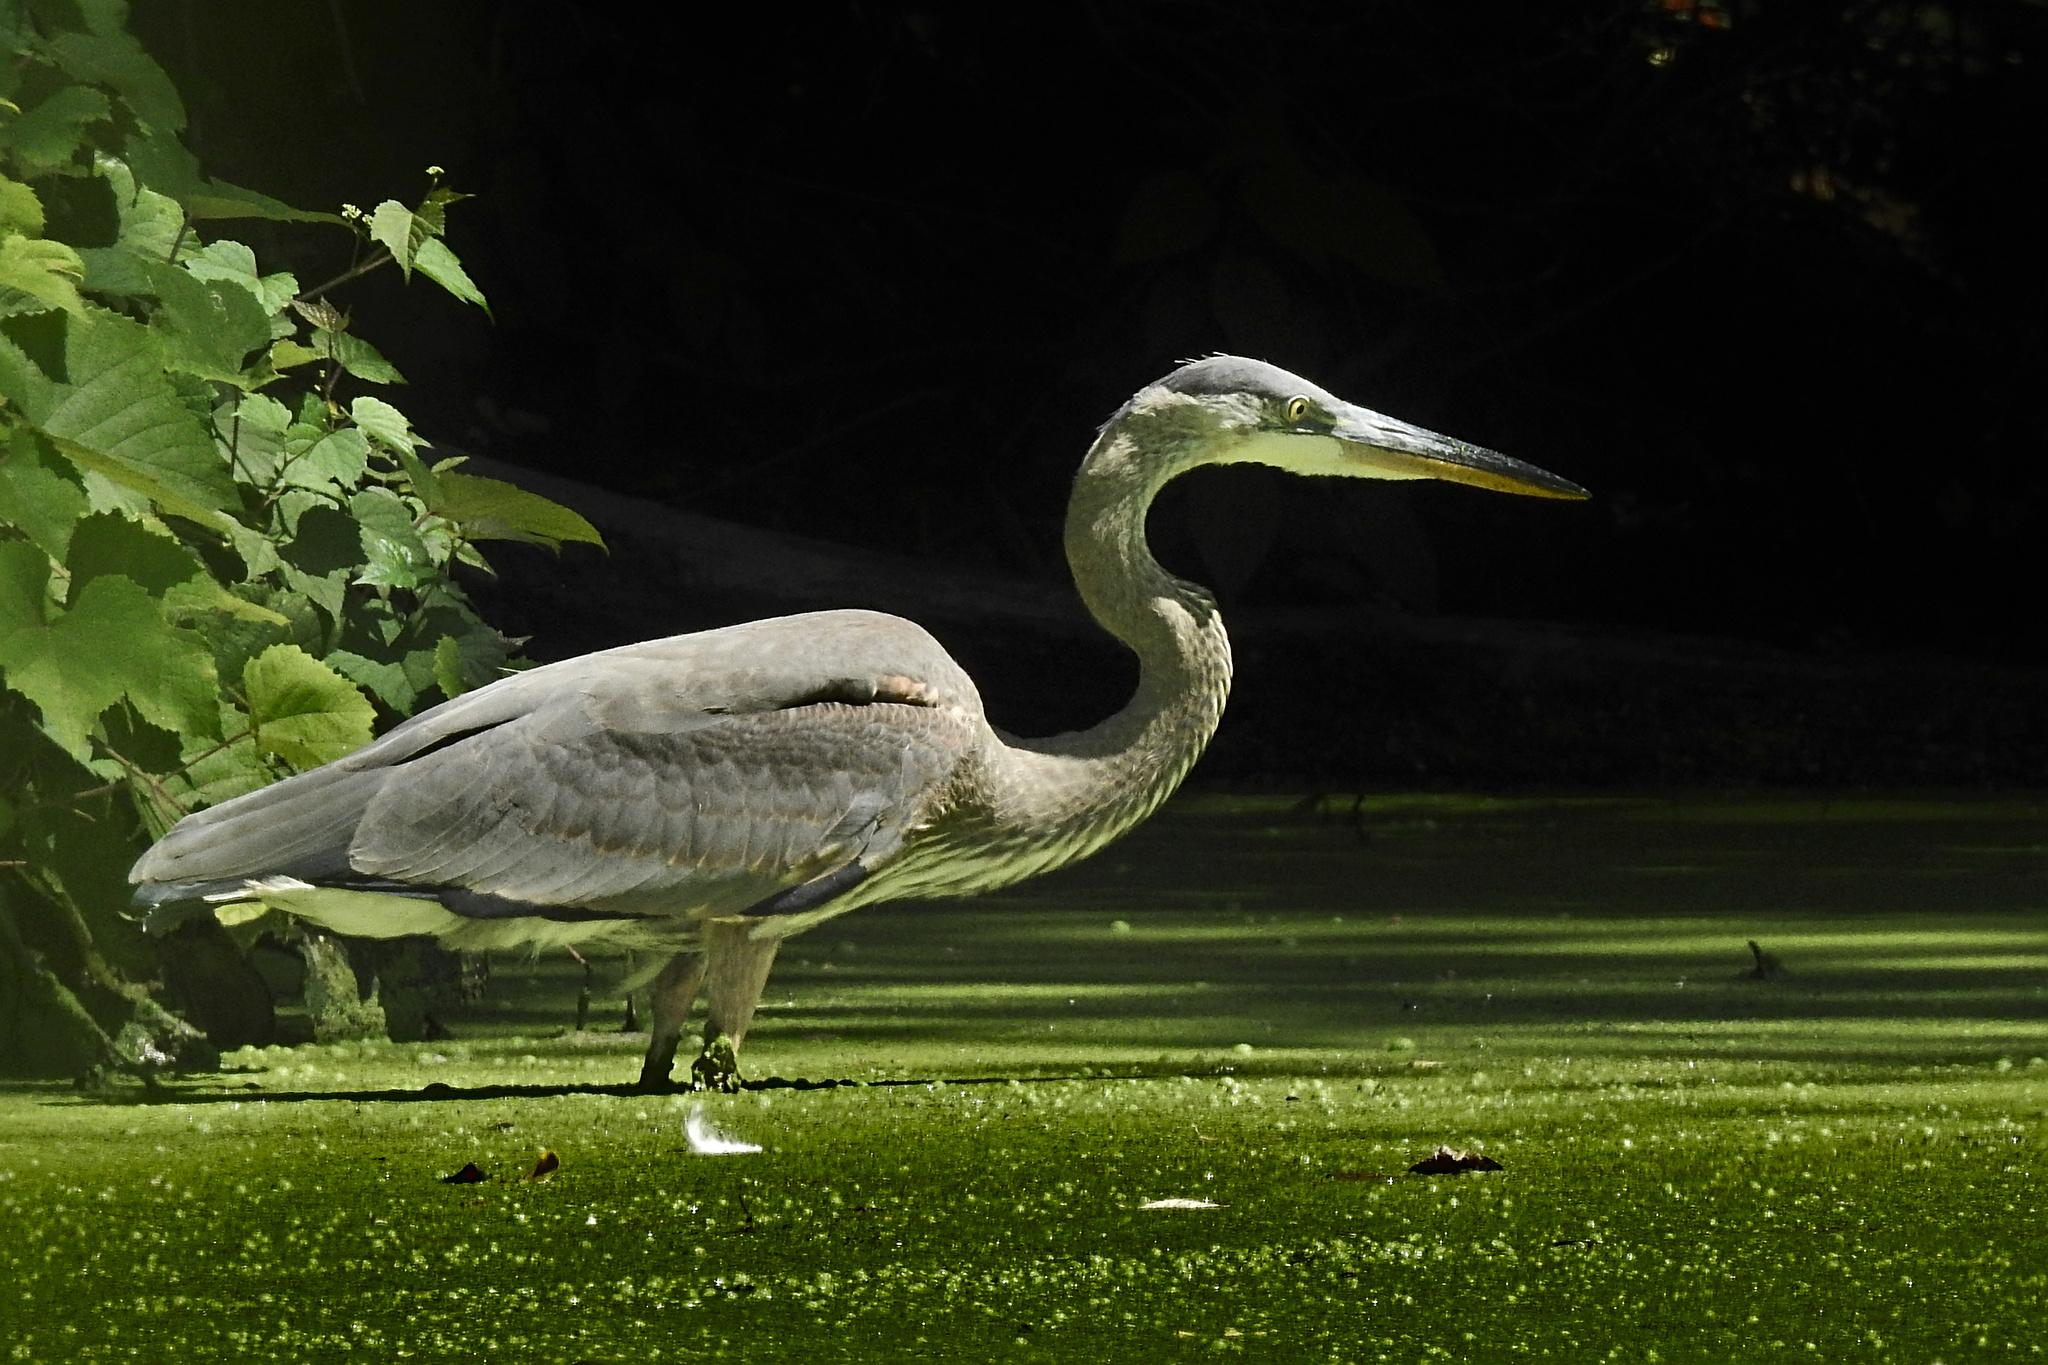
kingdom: Animalia
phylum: Chordata
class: Aves
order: Pelecaniformes
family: Ardeidae
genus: Ardea
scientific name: Ardea herodias
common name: Great blue heron
